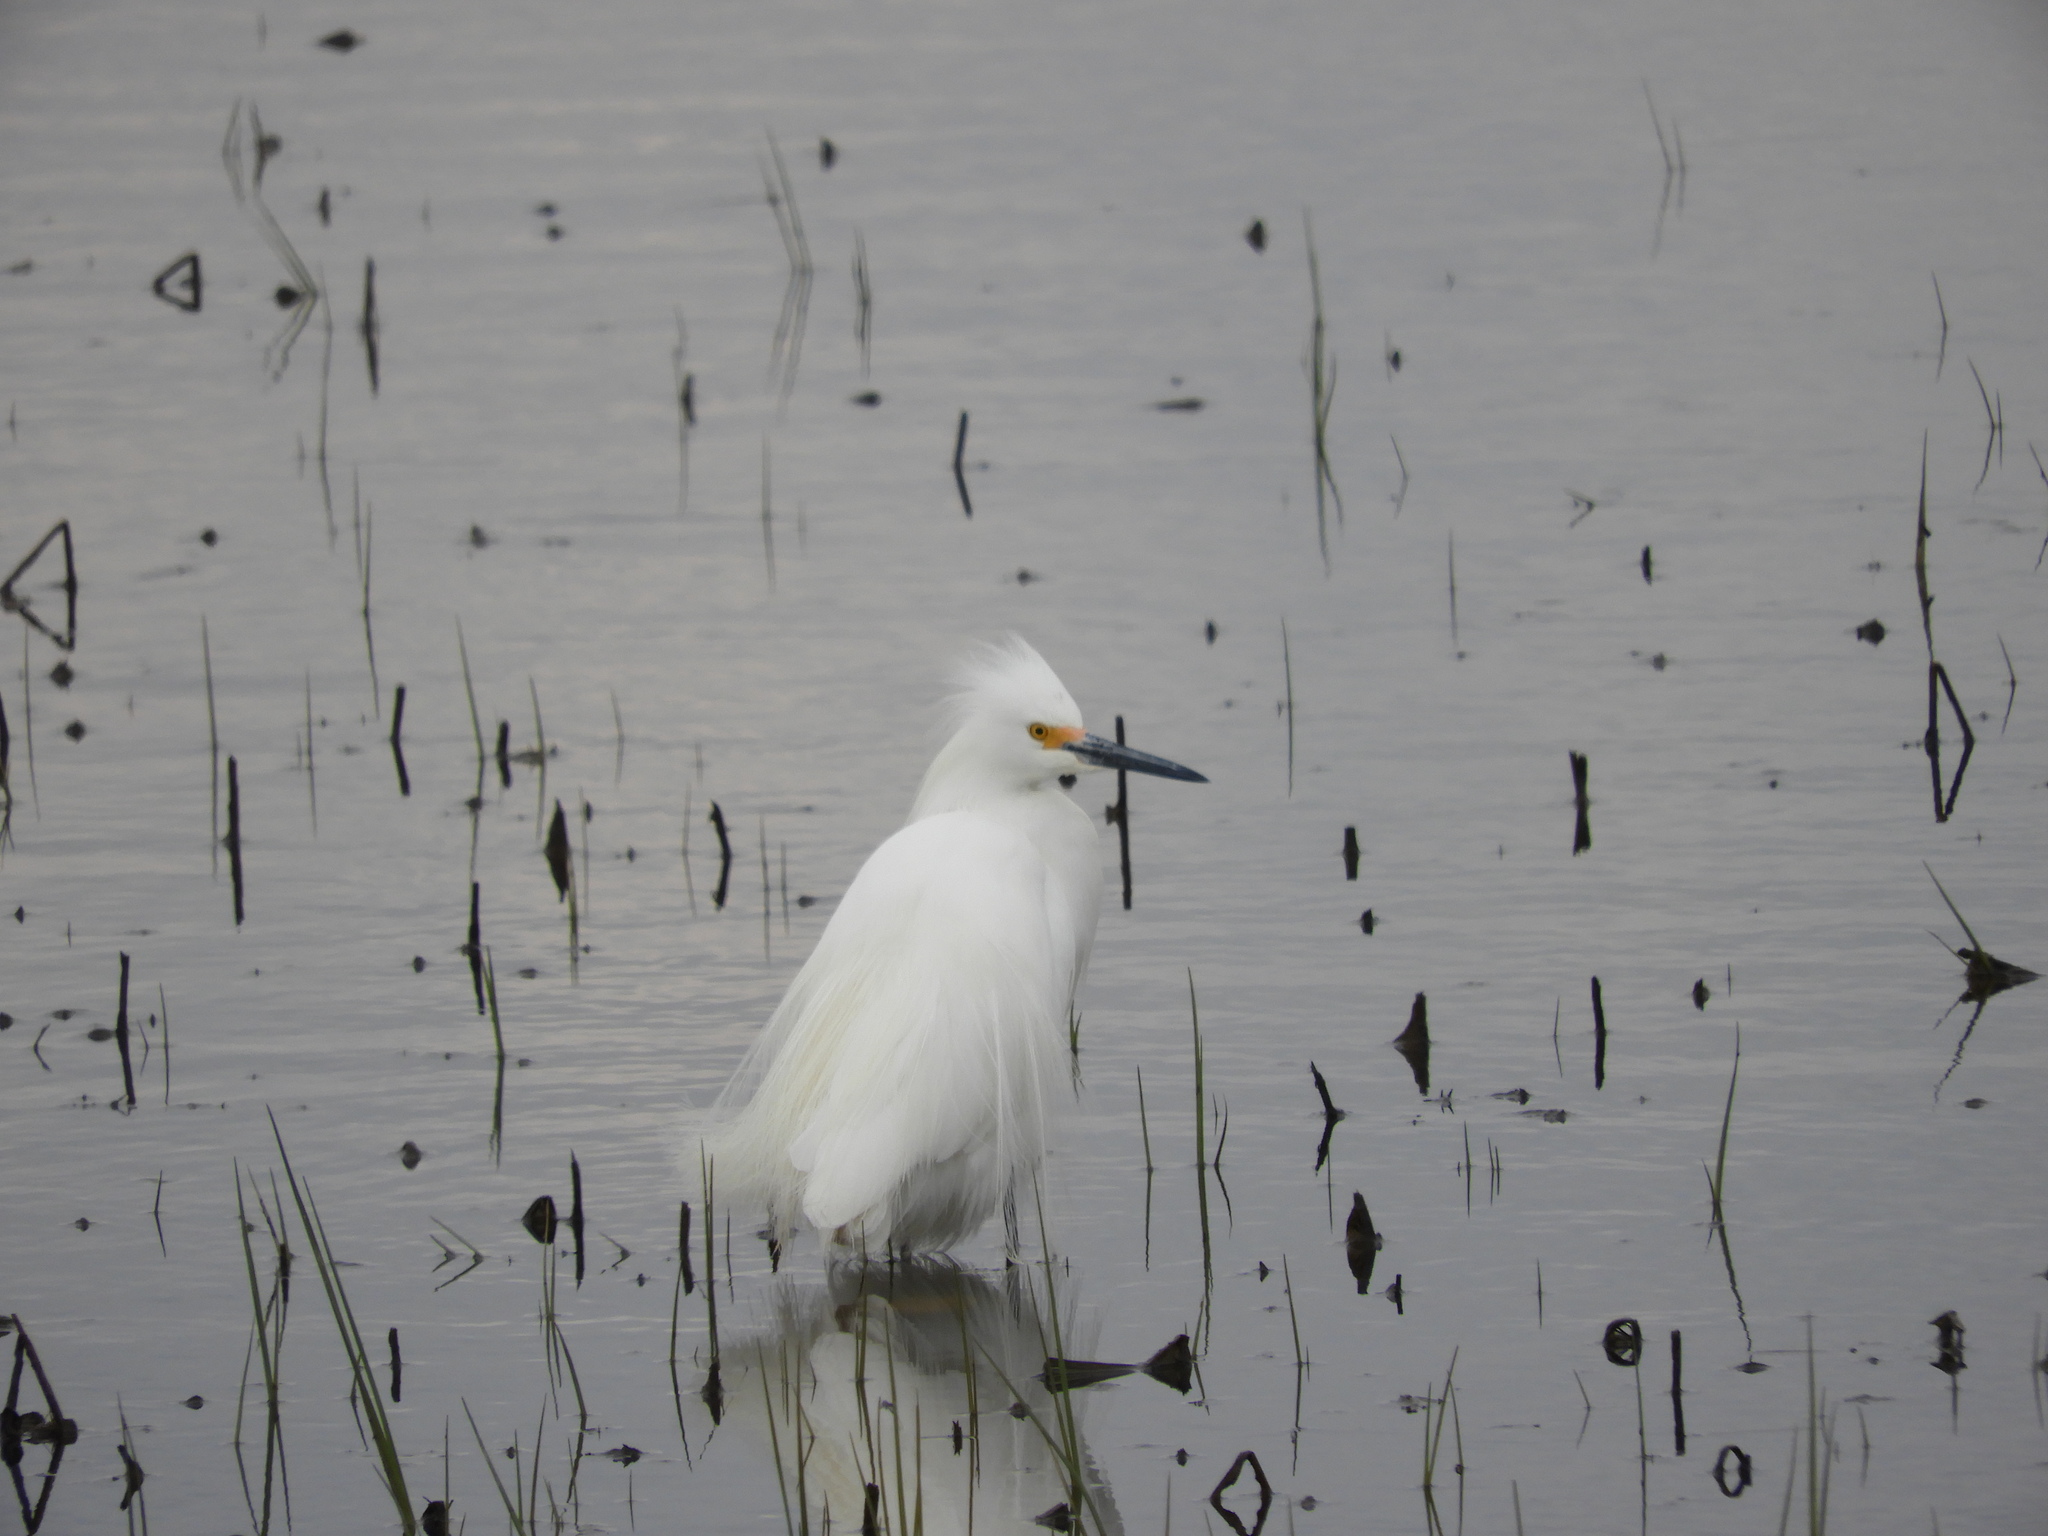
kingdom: Animalia
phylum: Chordata
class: Aves
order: Pelecaniformes
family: Ardeidae
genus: Egretta
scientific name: Egretta thula
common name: Snowy egret
